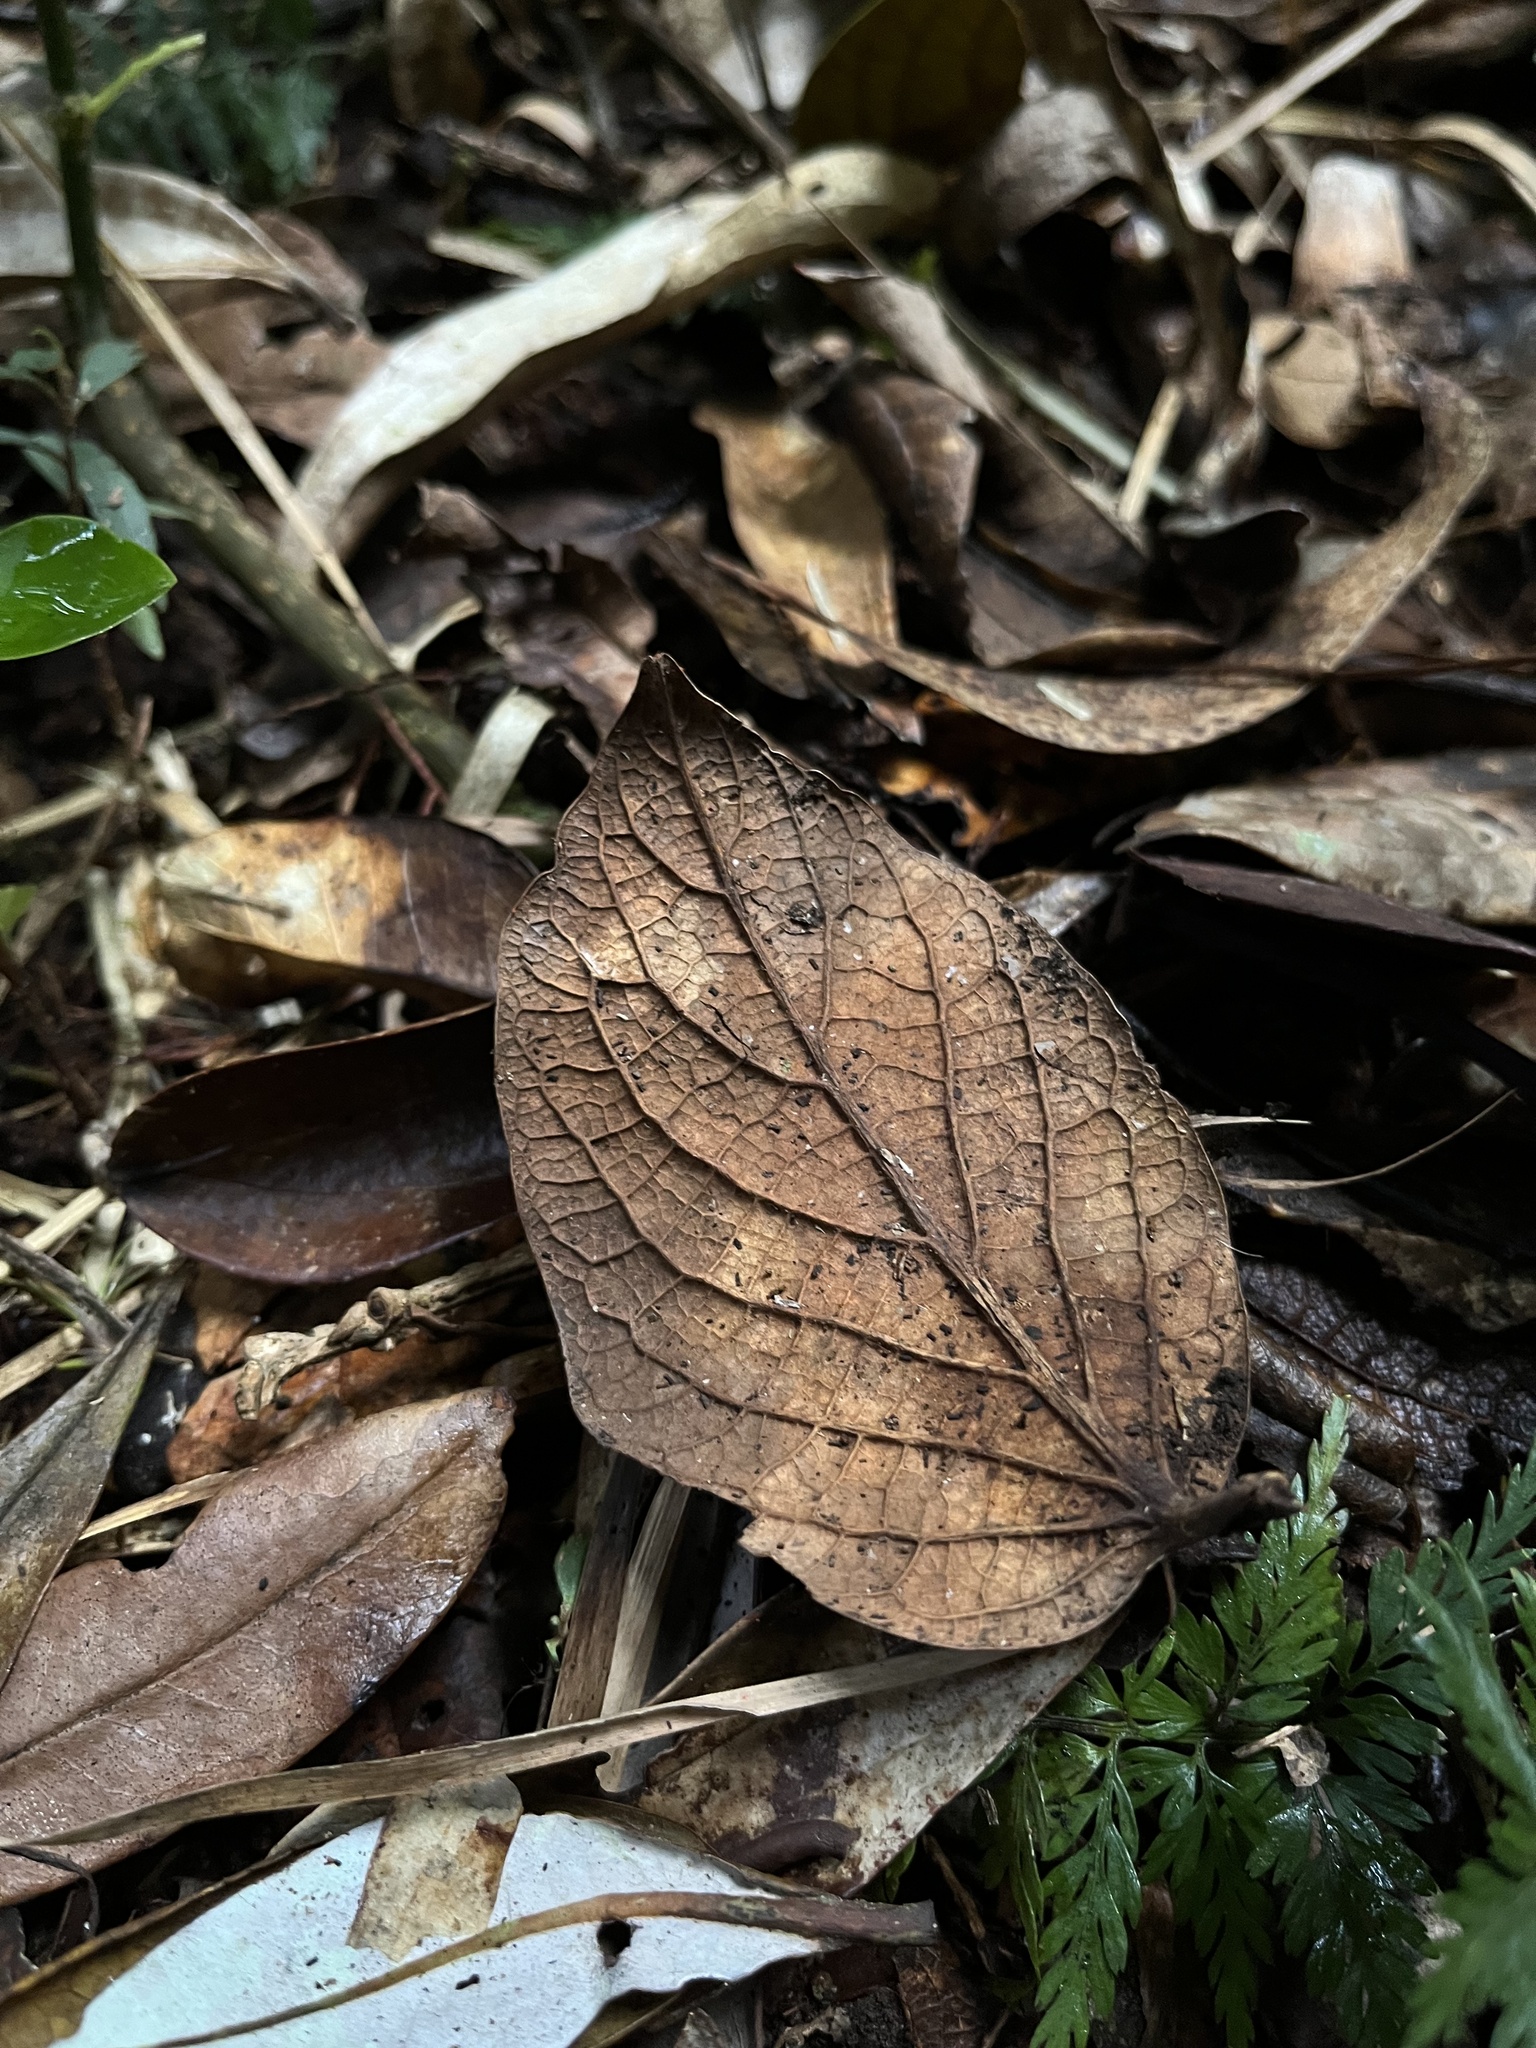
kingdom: Plantae
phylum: Tracheophyta
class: Magnoliopsida
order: Laurales
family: Lauraceae
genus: Ocotea
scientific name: Ocotea pedicellata
